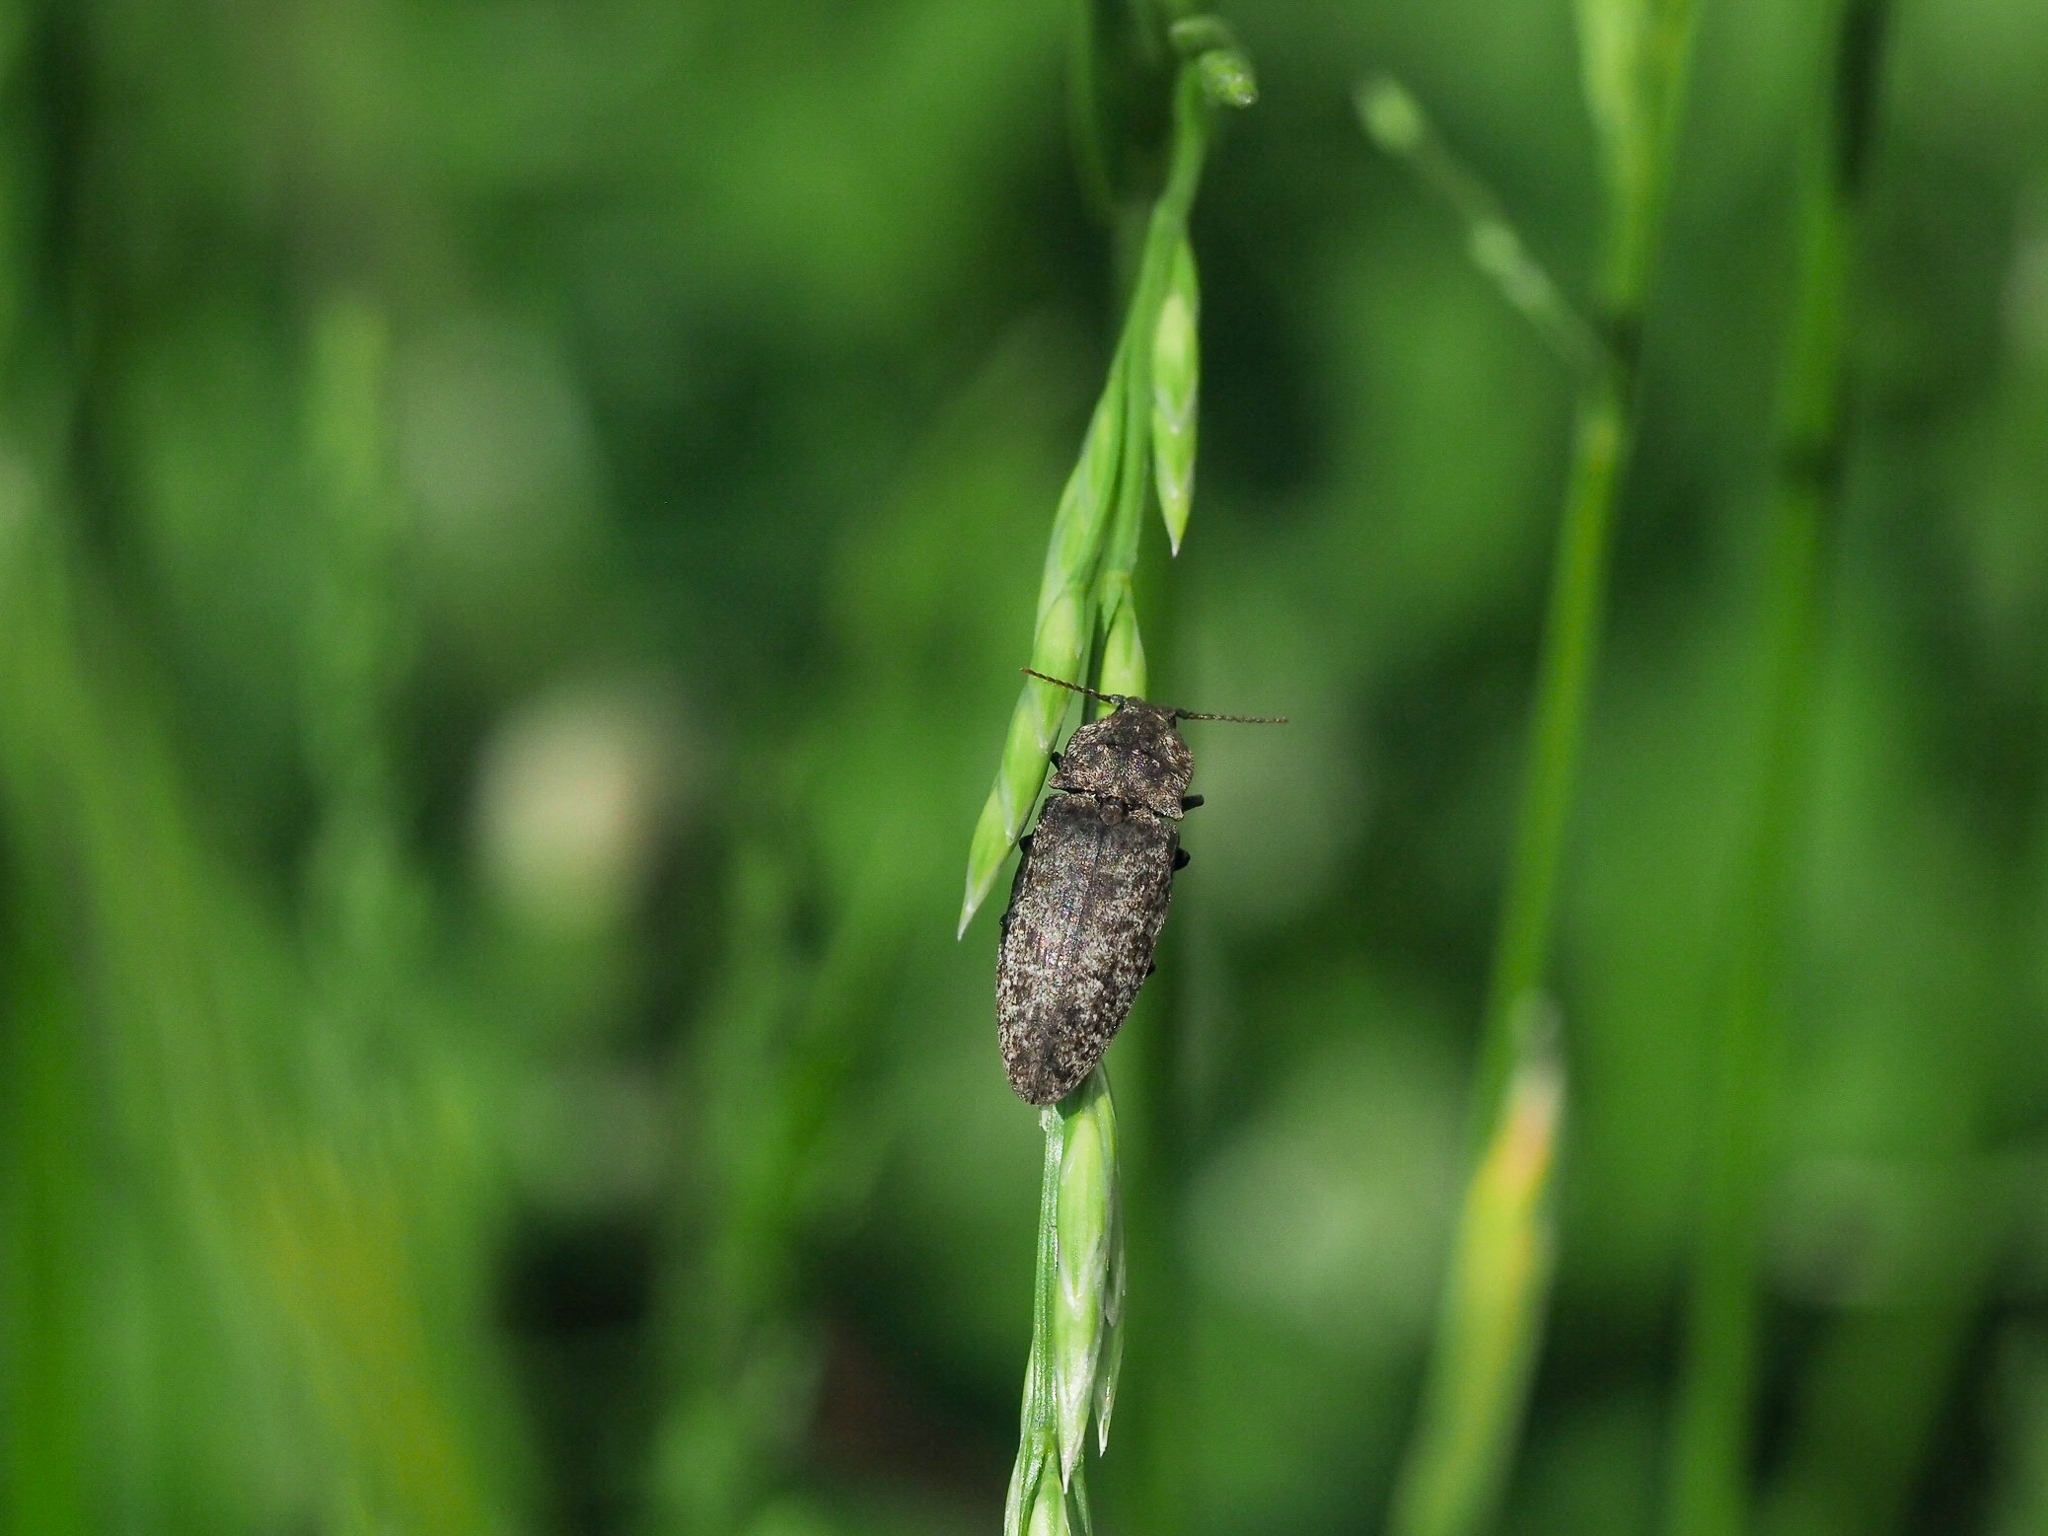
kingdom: Animalia
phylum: Arthropoda
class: Insecta
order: Coleoptera
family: Elateridae
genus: Agrypnus
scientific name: Agrypnus murinus
